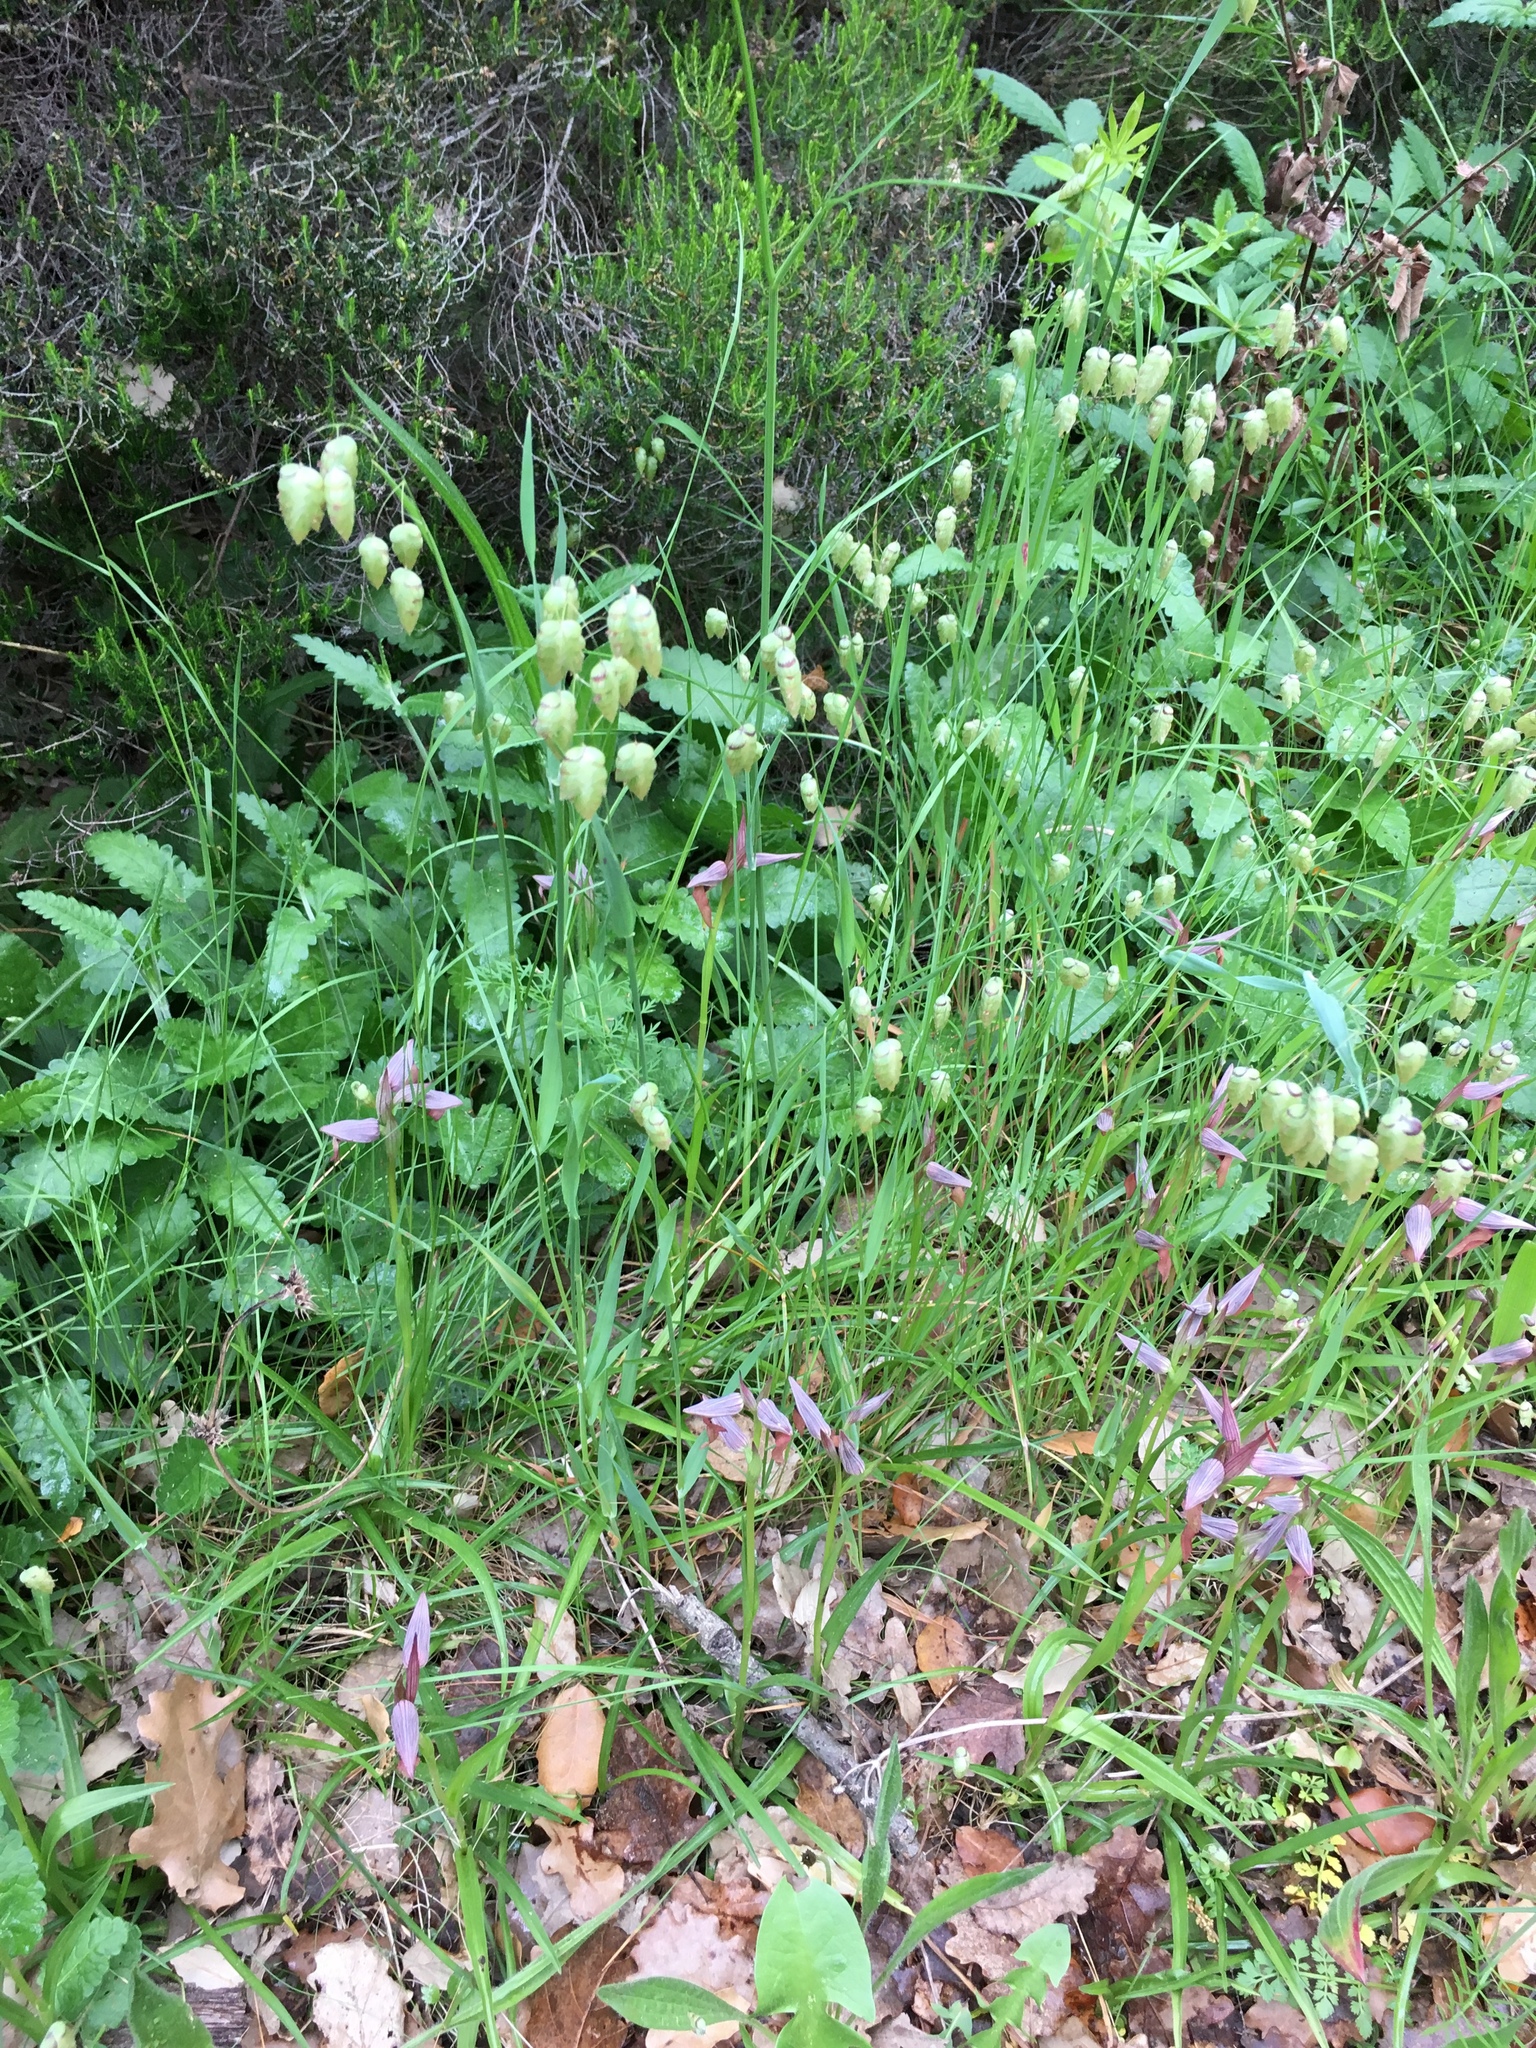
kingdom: Plantae
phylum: Tracheophyta
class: Liliopsida
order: Poales
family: Poaceae
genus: Briza
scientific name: Briza maxima
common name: Big quakinggrass
